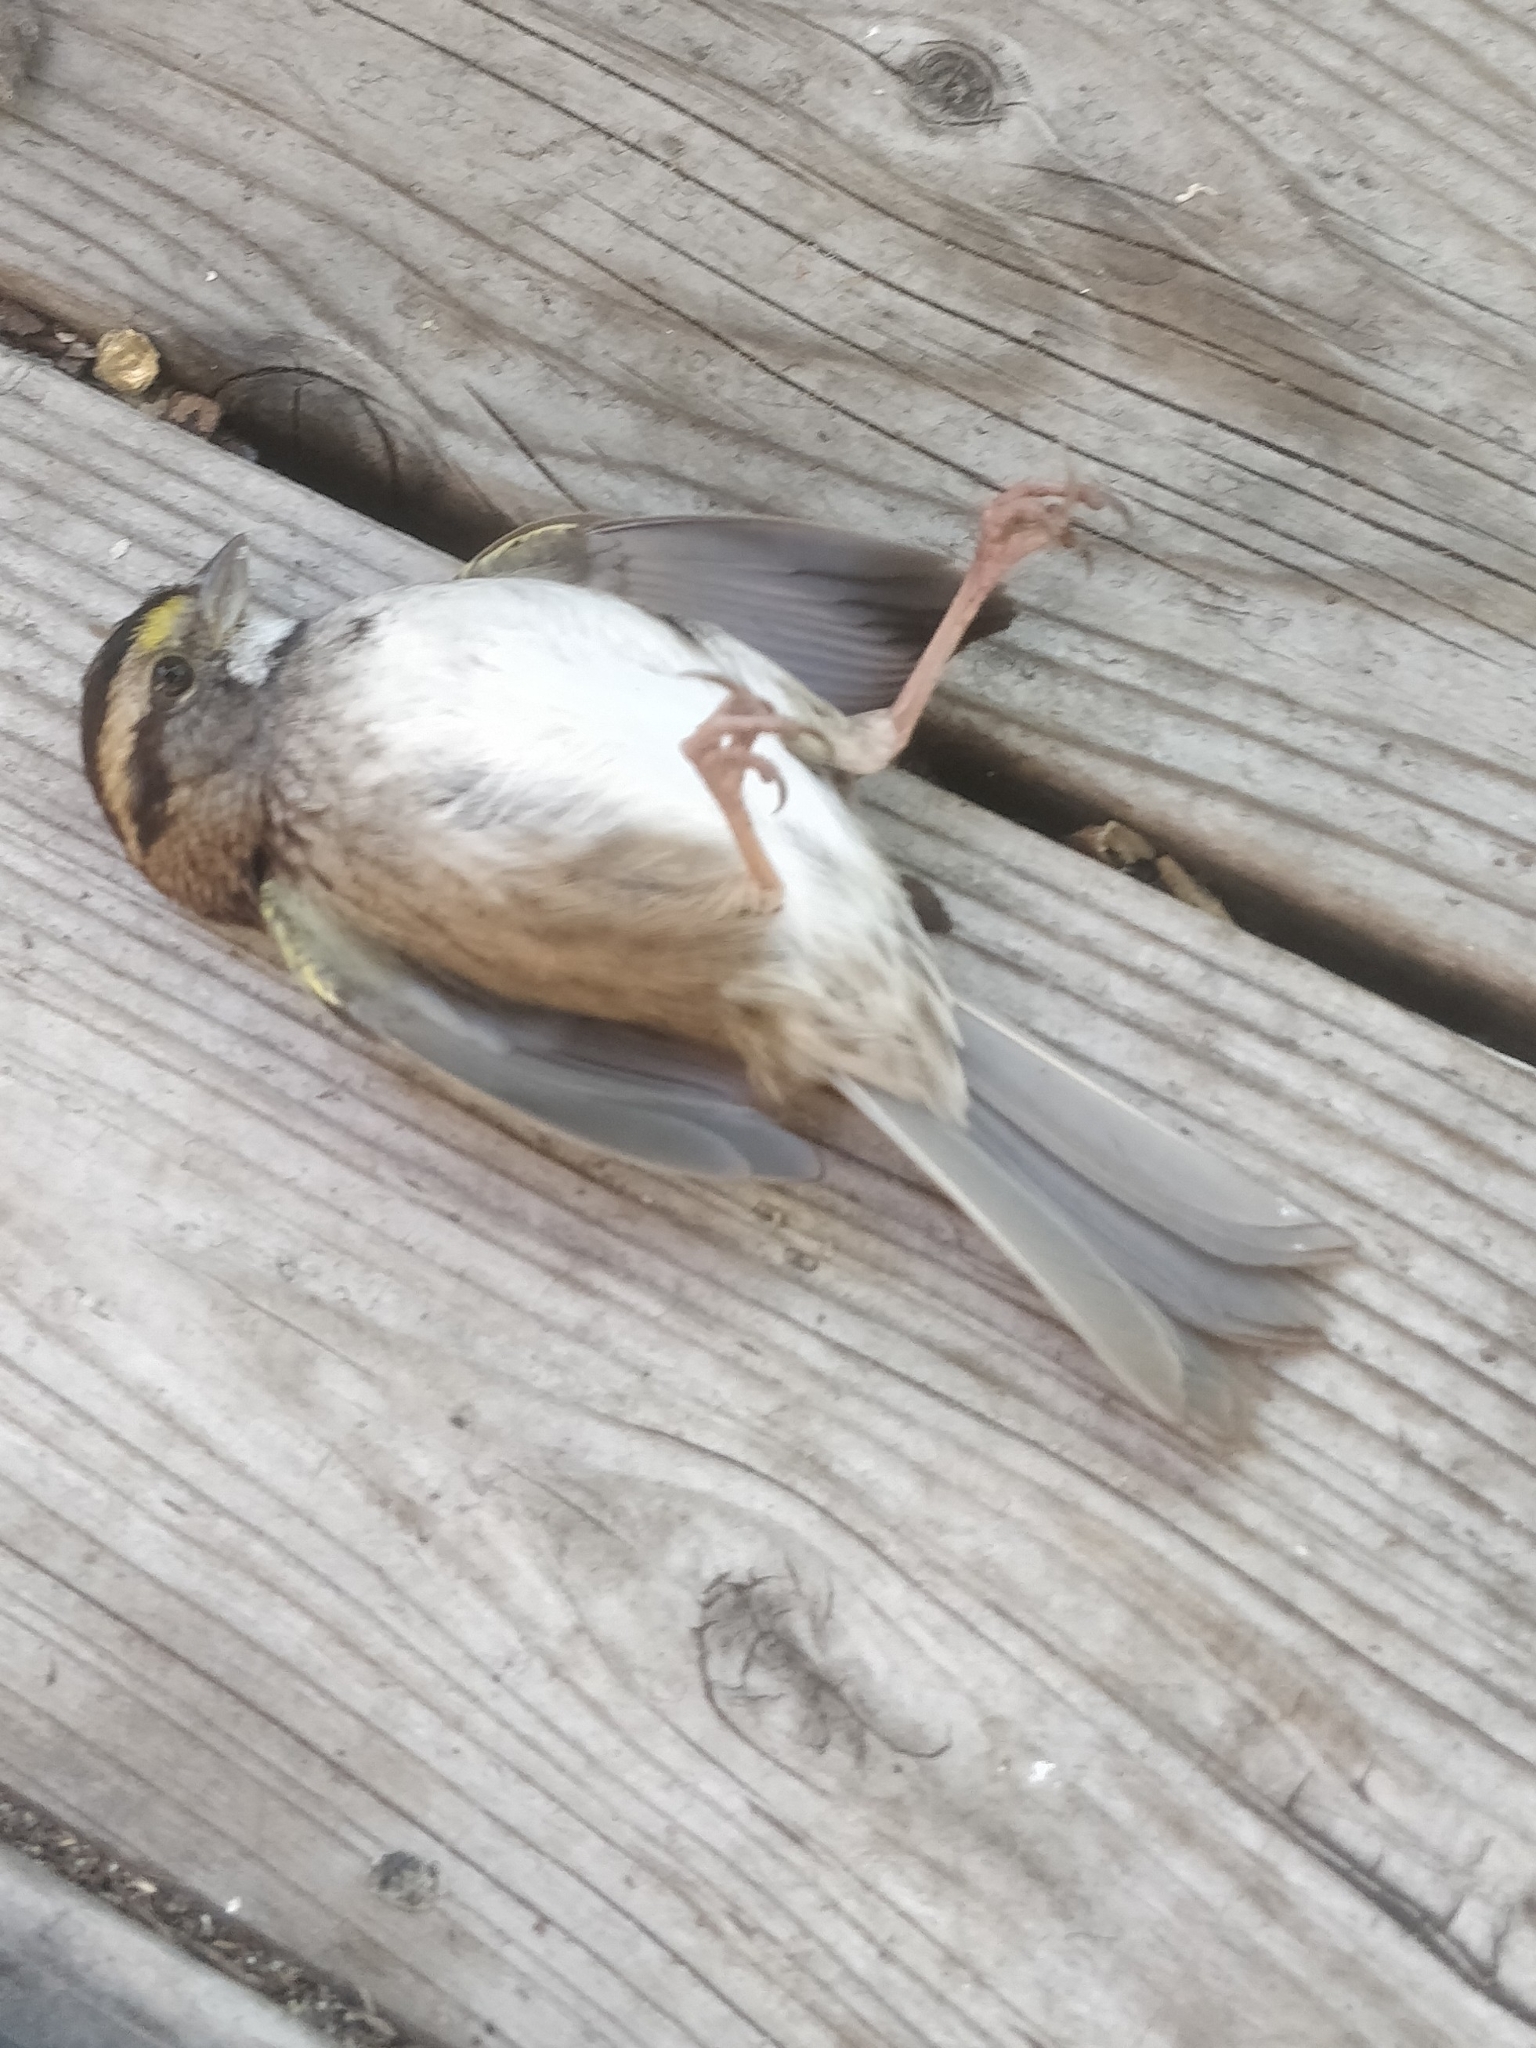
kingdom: Animalia
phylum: Chordata
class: Aves
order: Passeriformes
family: Passerellidae
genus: Zonotrichia
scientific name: Zonotrichia albicollis
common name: White-throated sparrow
